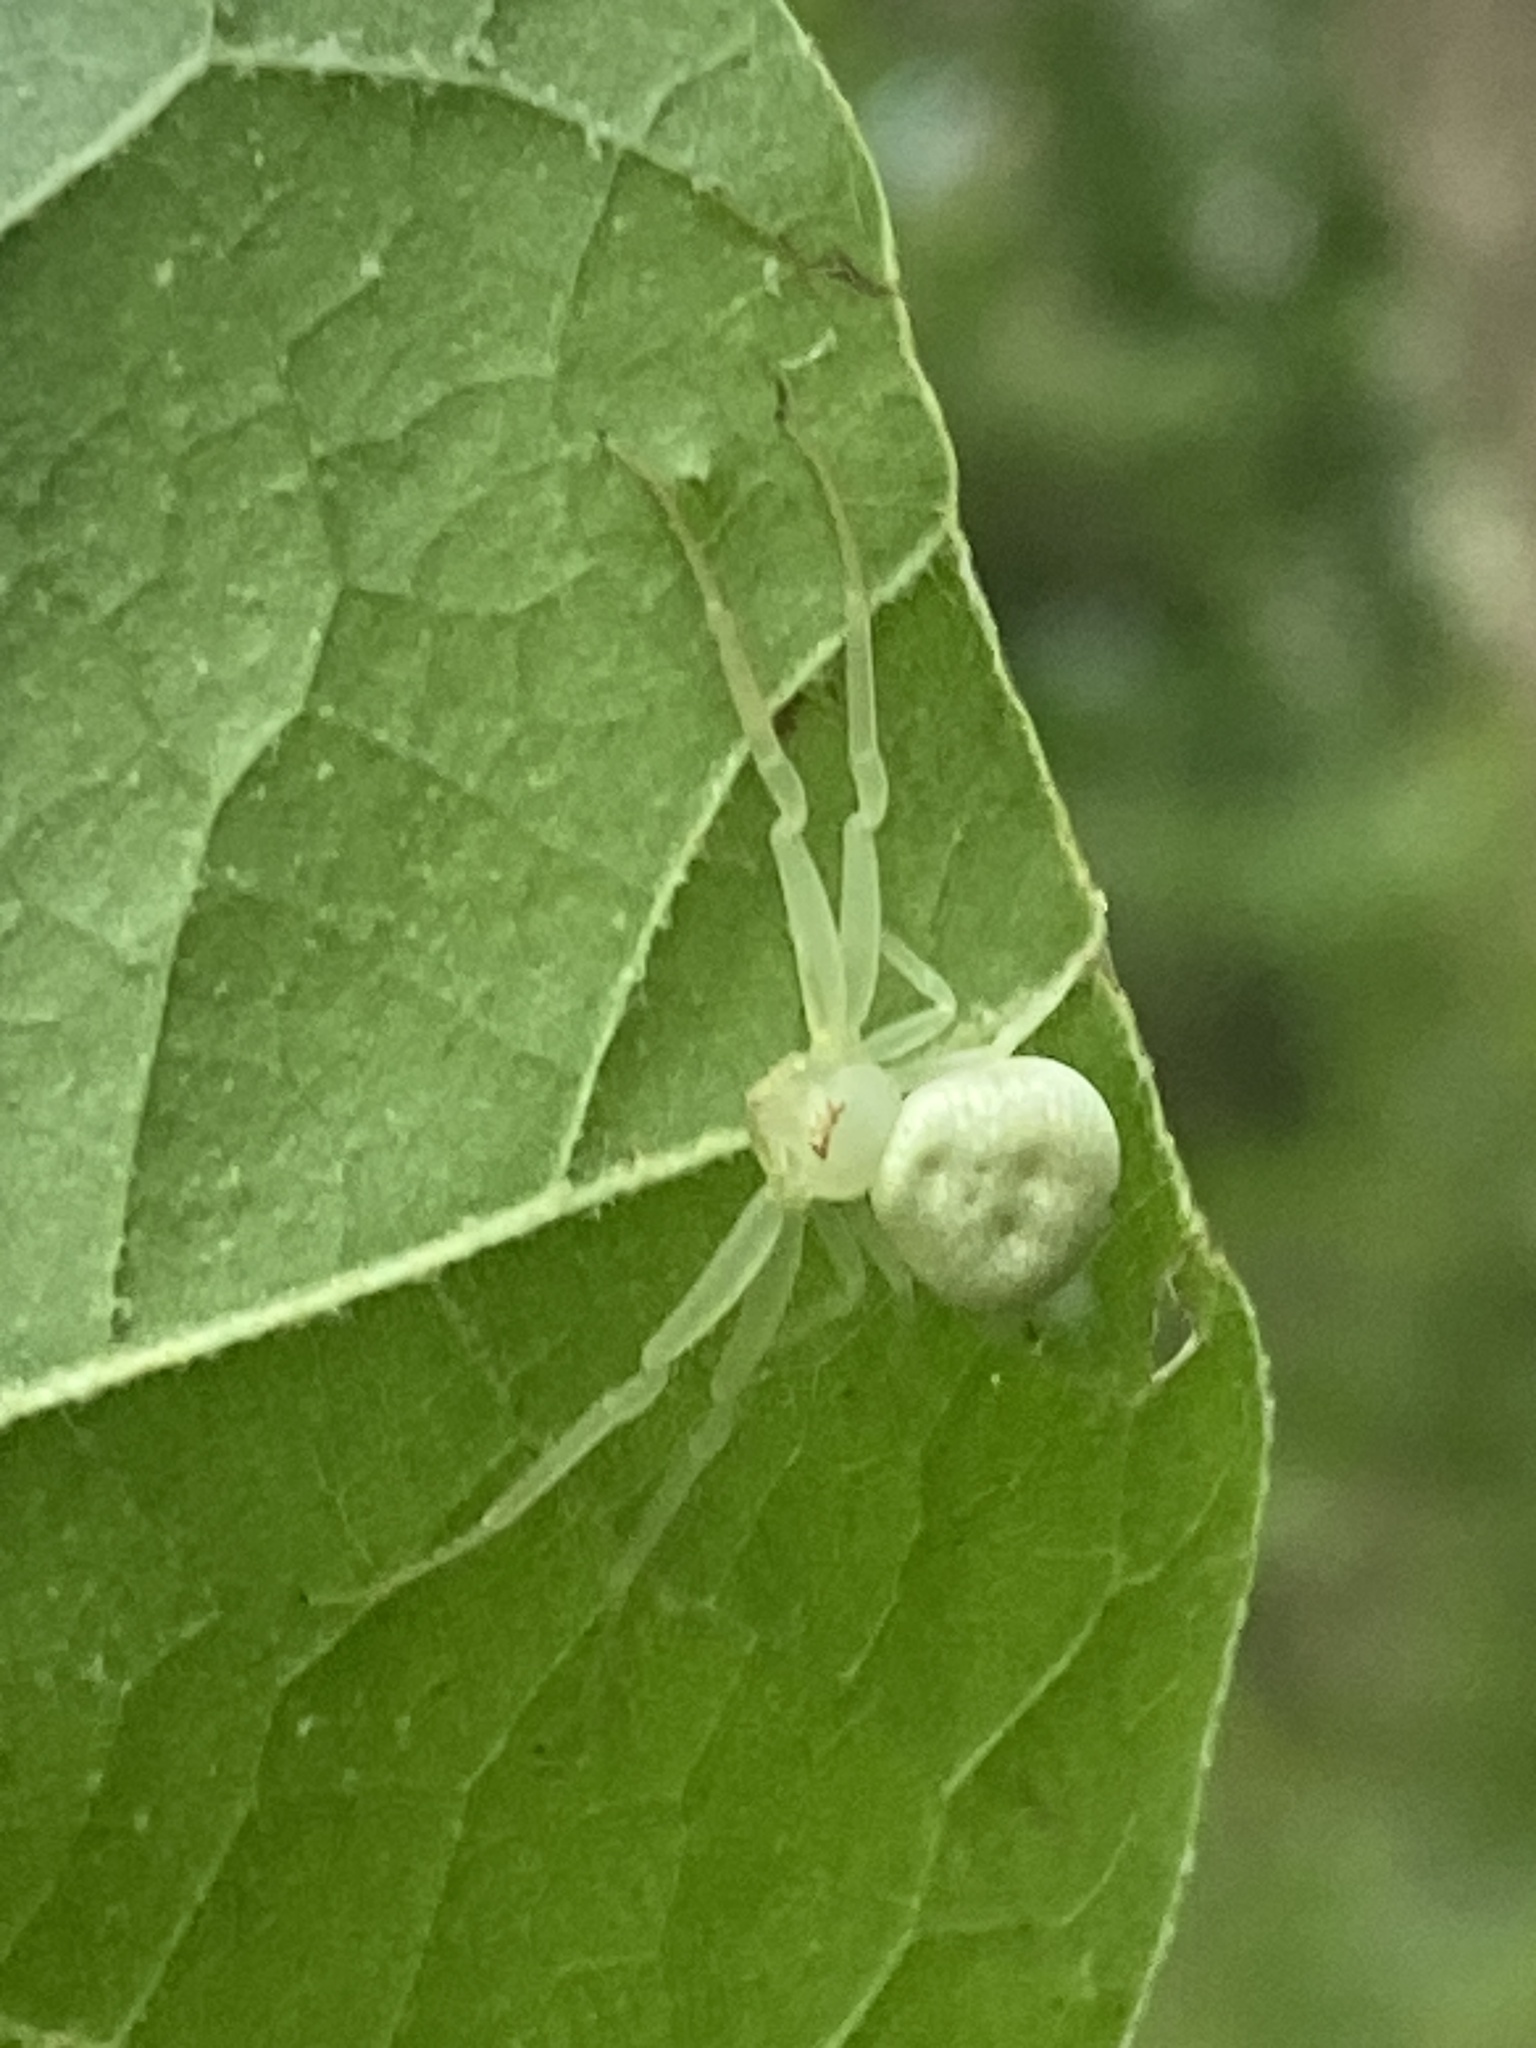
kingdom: Animalia
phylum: Arthropoda
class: Arachnida
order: Araneae
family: Thomisidae
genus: Misumessus
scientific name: Misumessus oblongus
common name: American green crab spider
